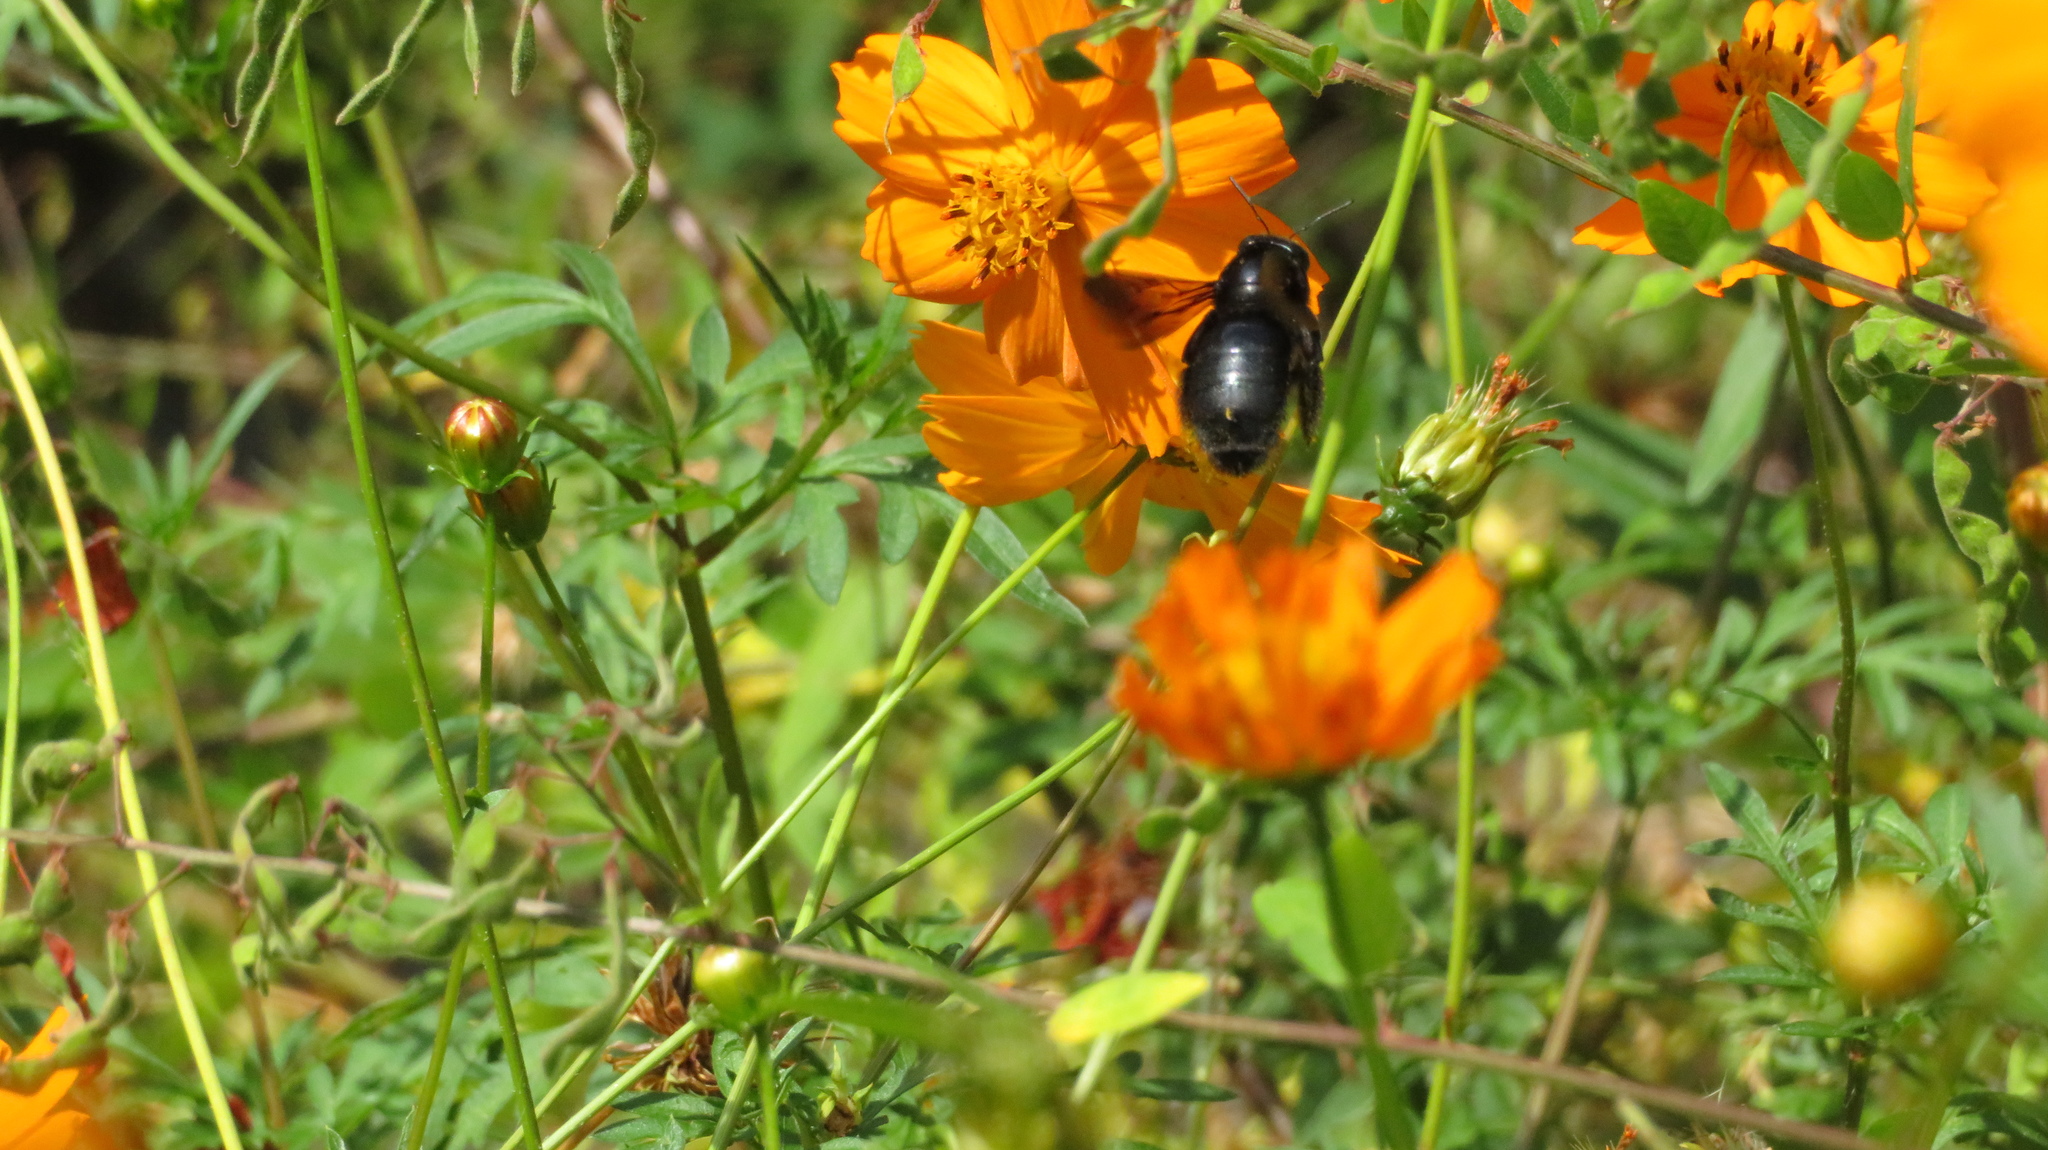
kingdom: Animalia
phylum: Arthropoda
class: Insecta
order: Hymenoptera
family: Apidae
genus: Xylocopa
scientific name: Xylocopa tranquebarorum
